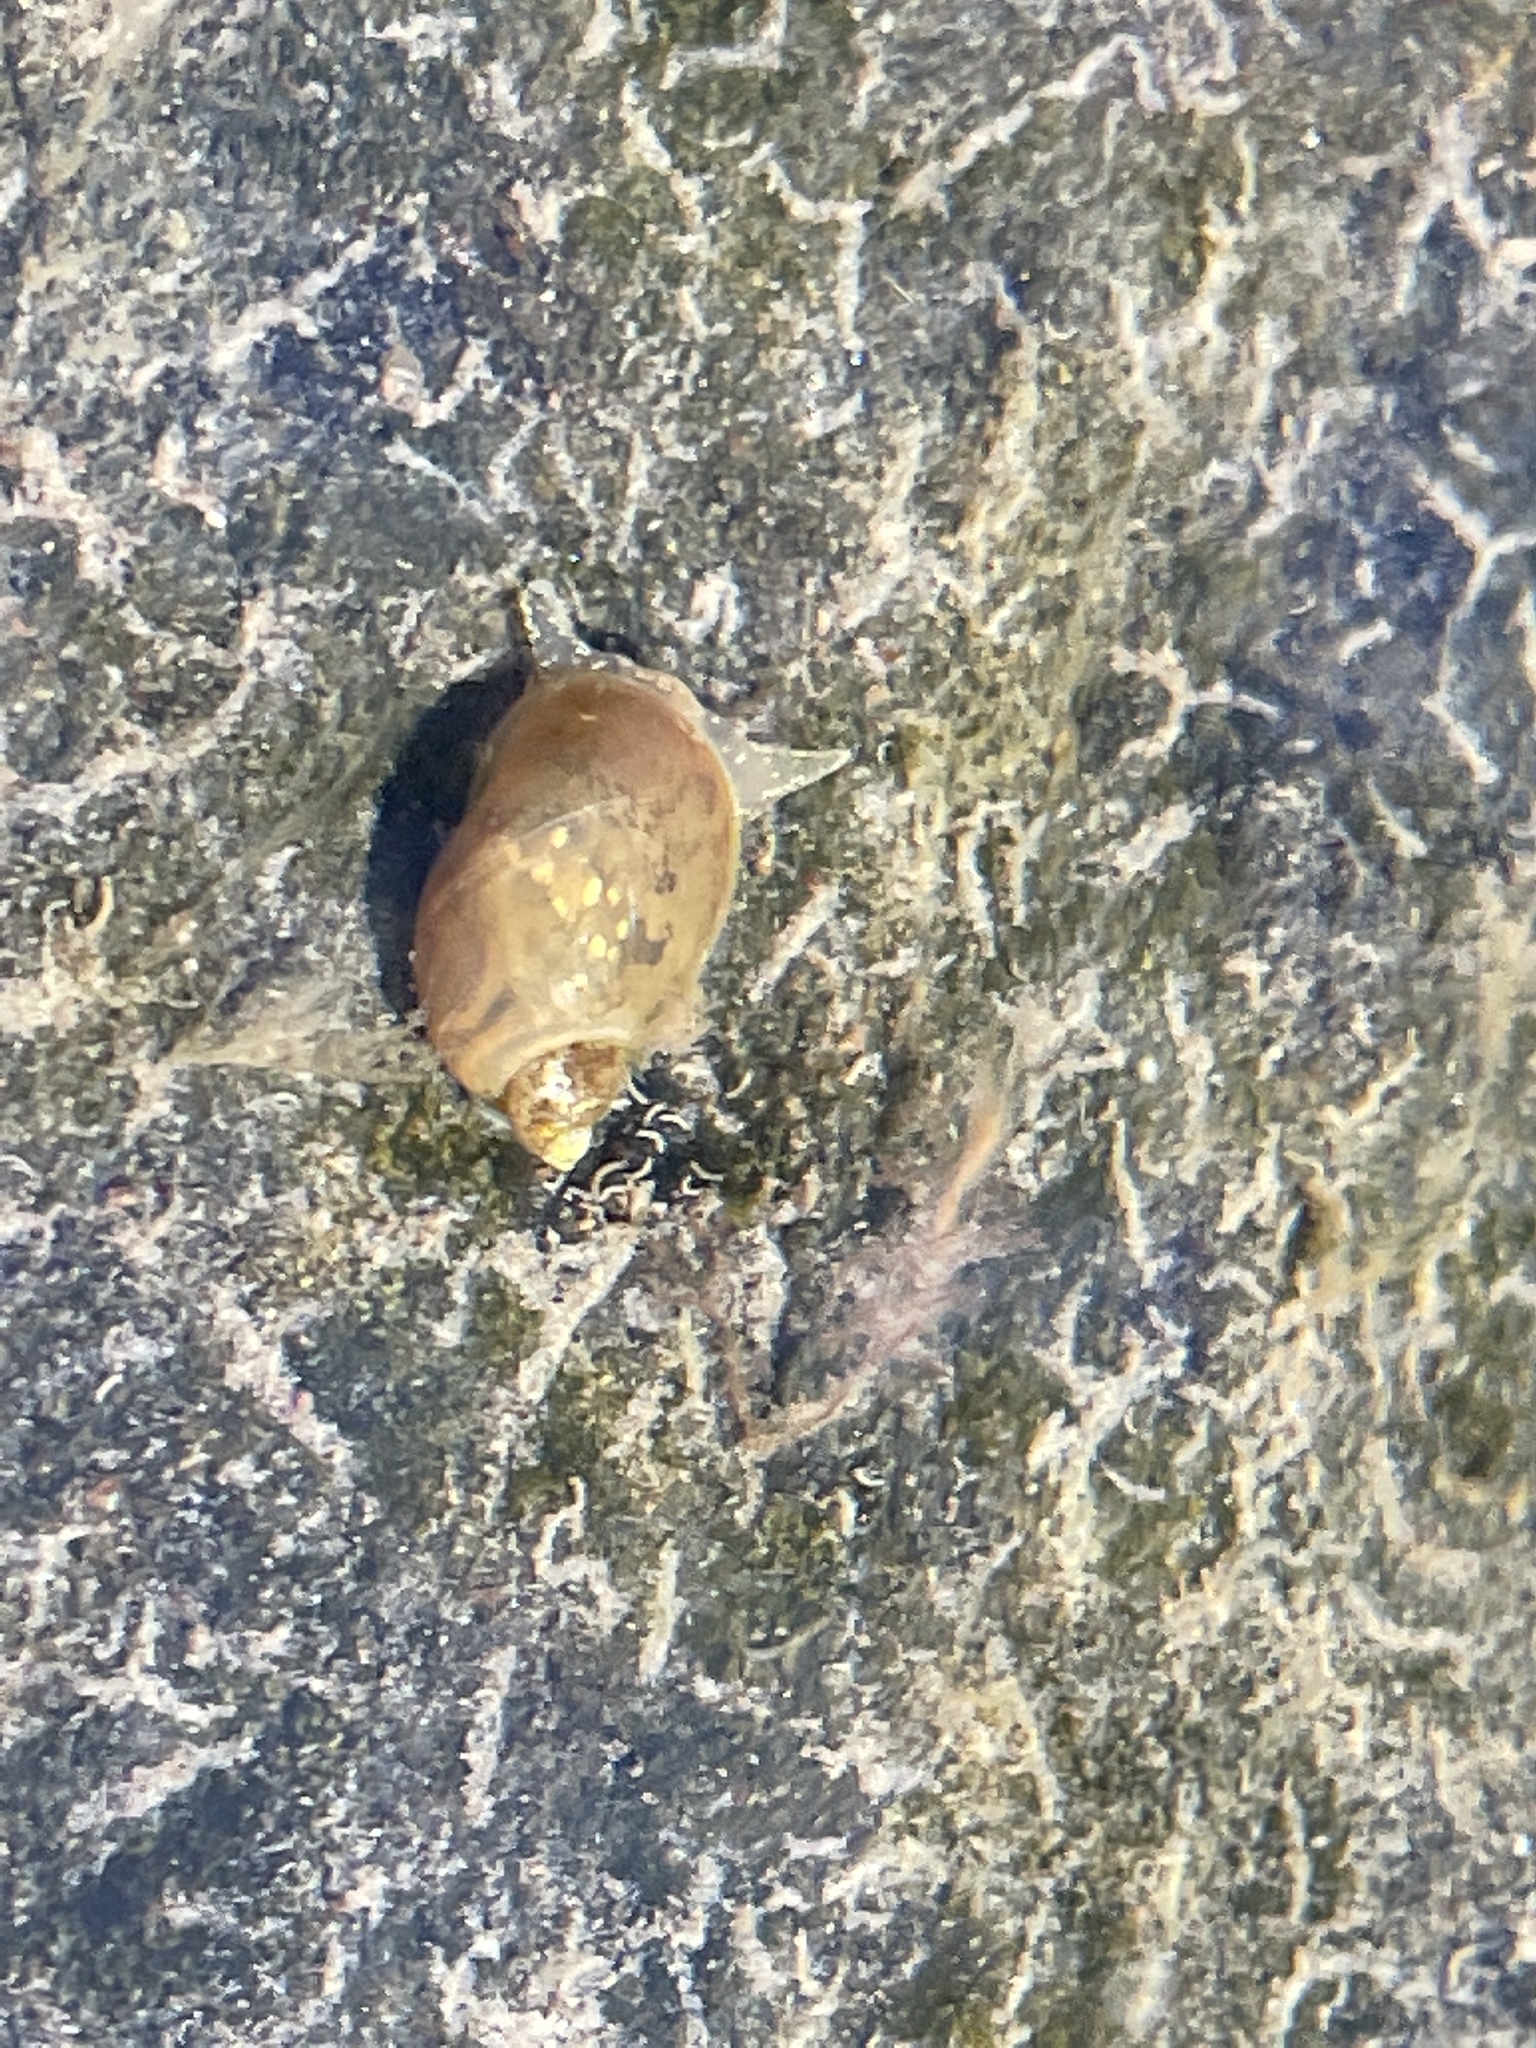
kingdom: Animalia
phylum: Mollusca
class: Gastropoda
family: Lymnaeidae
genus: Ampullaceana
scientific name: Ampullaceana balthica
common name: Wandering pond snail
